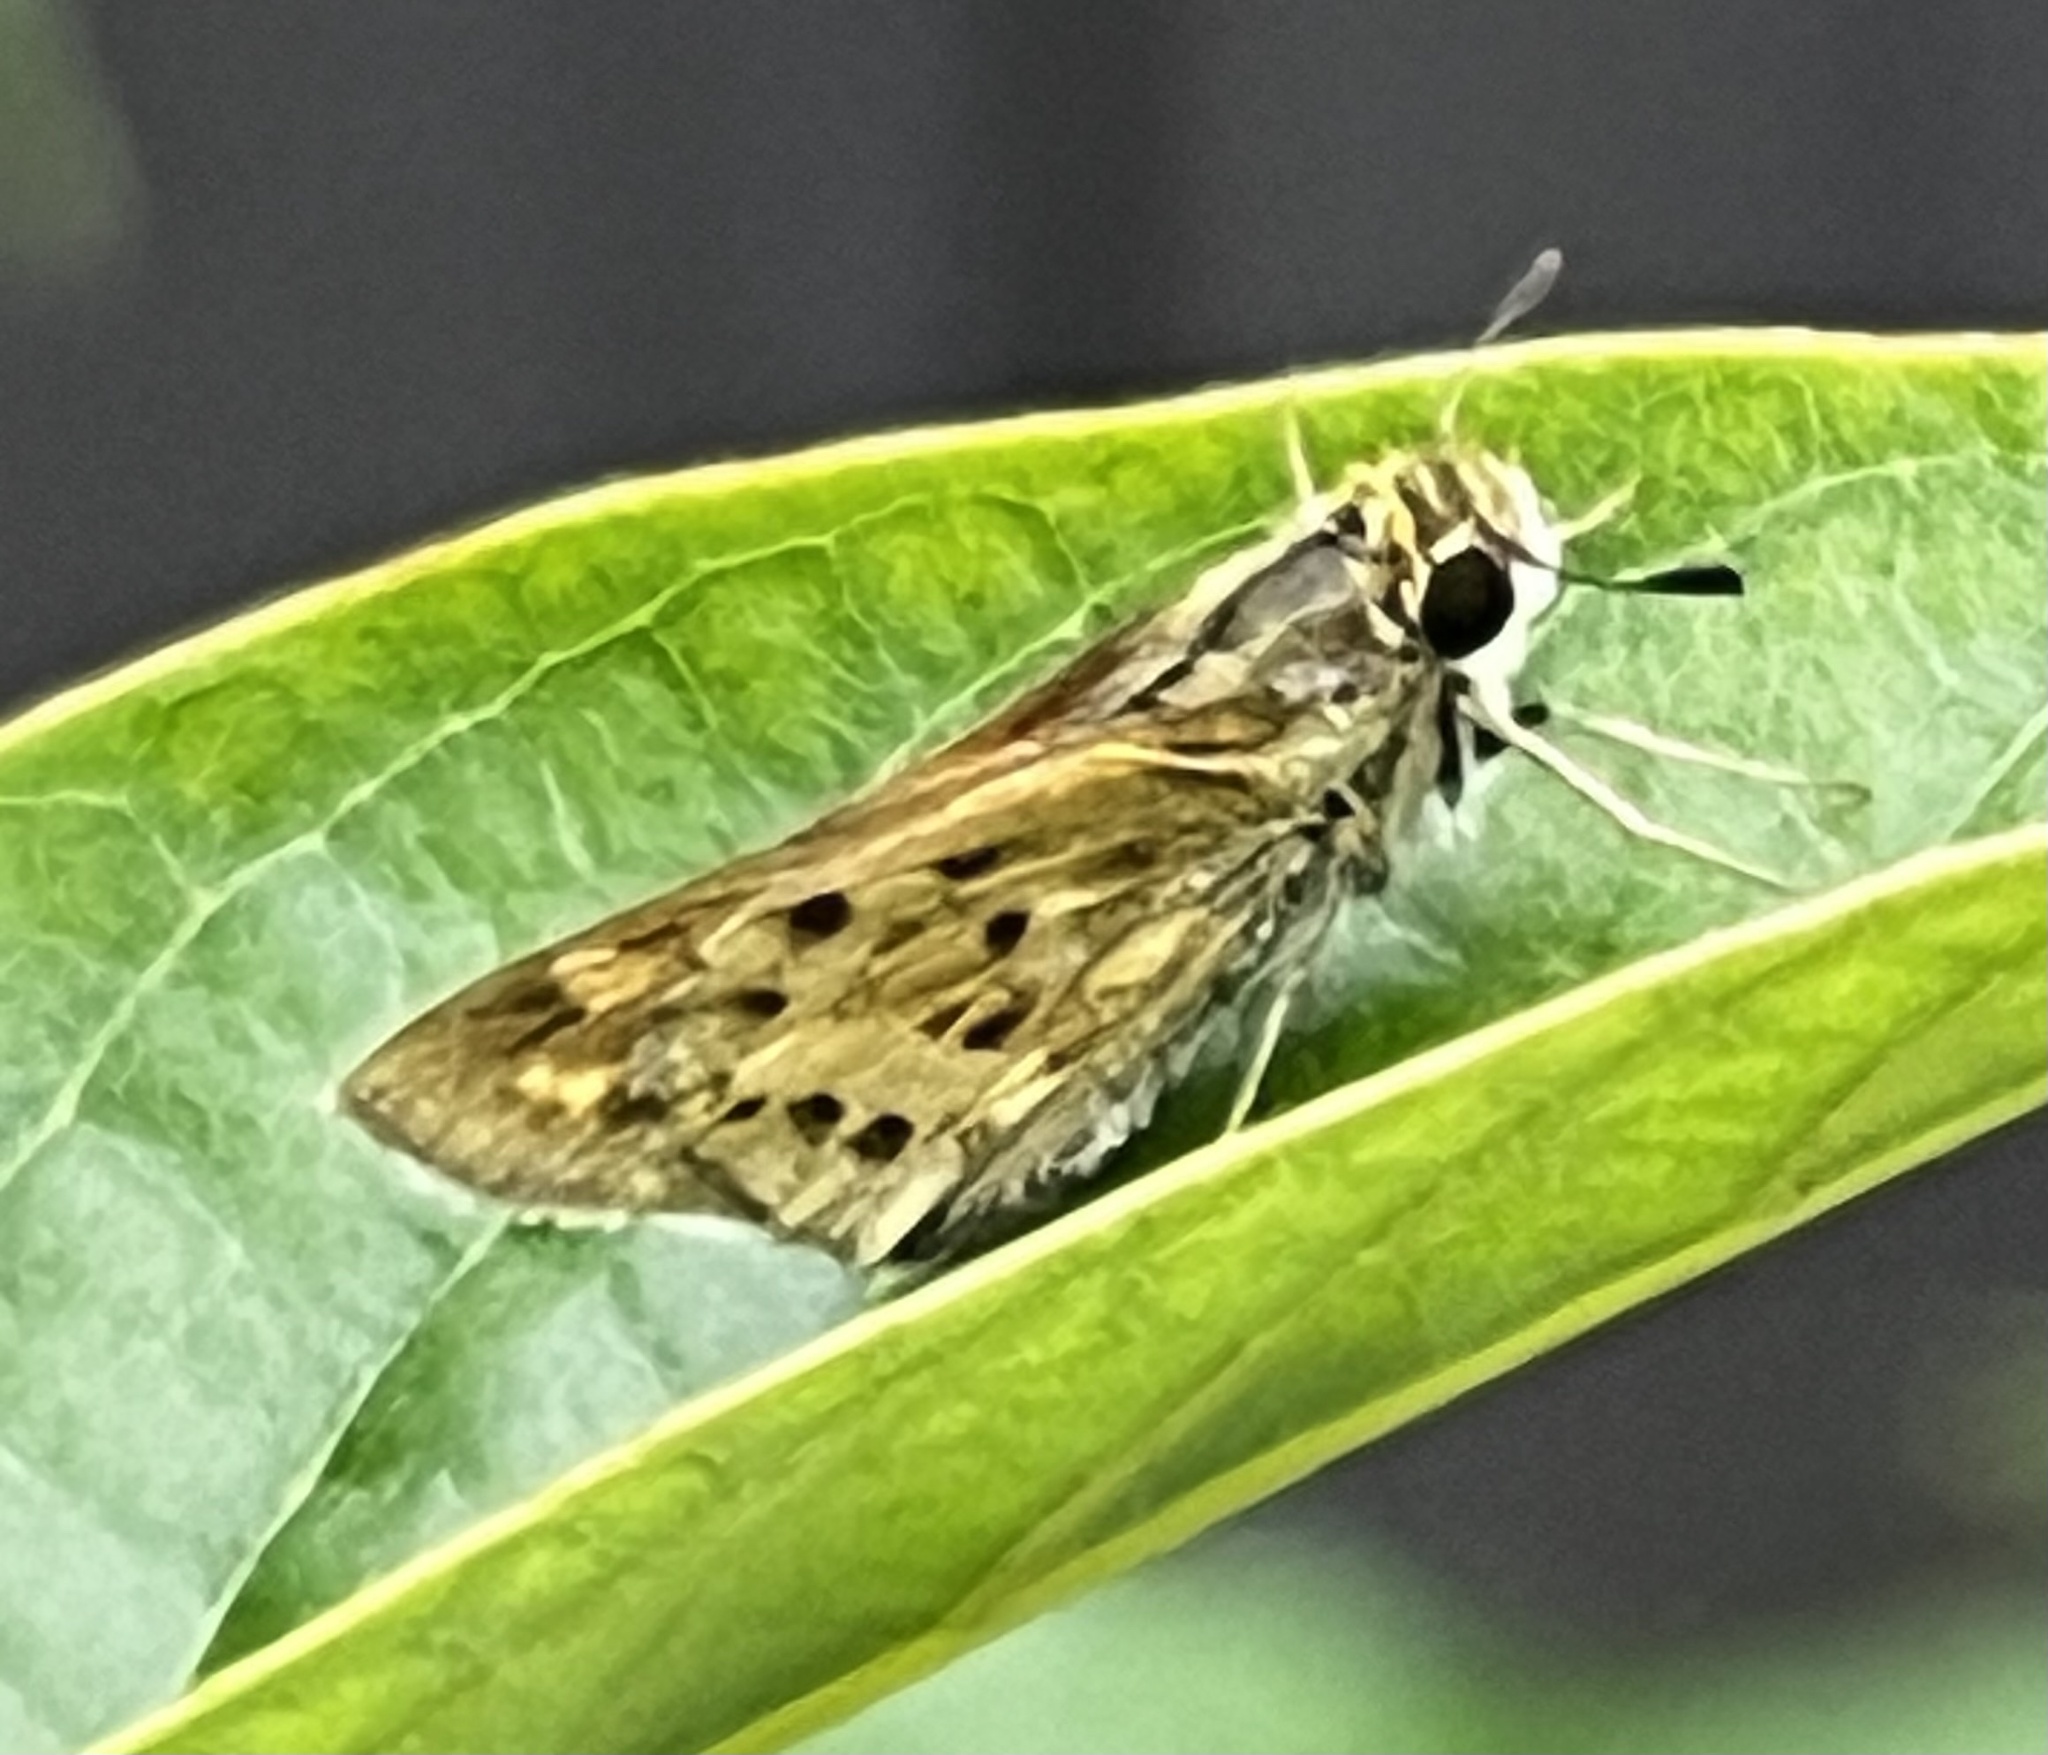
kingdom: Animalia
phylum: Arthropoda
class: Insecta
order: Lepidoptera
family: Hesperiidae
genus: Hylephila
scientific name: Hylephila phyleus
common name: Fiery skipper
